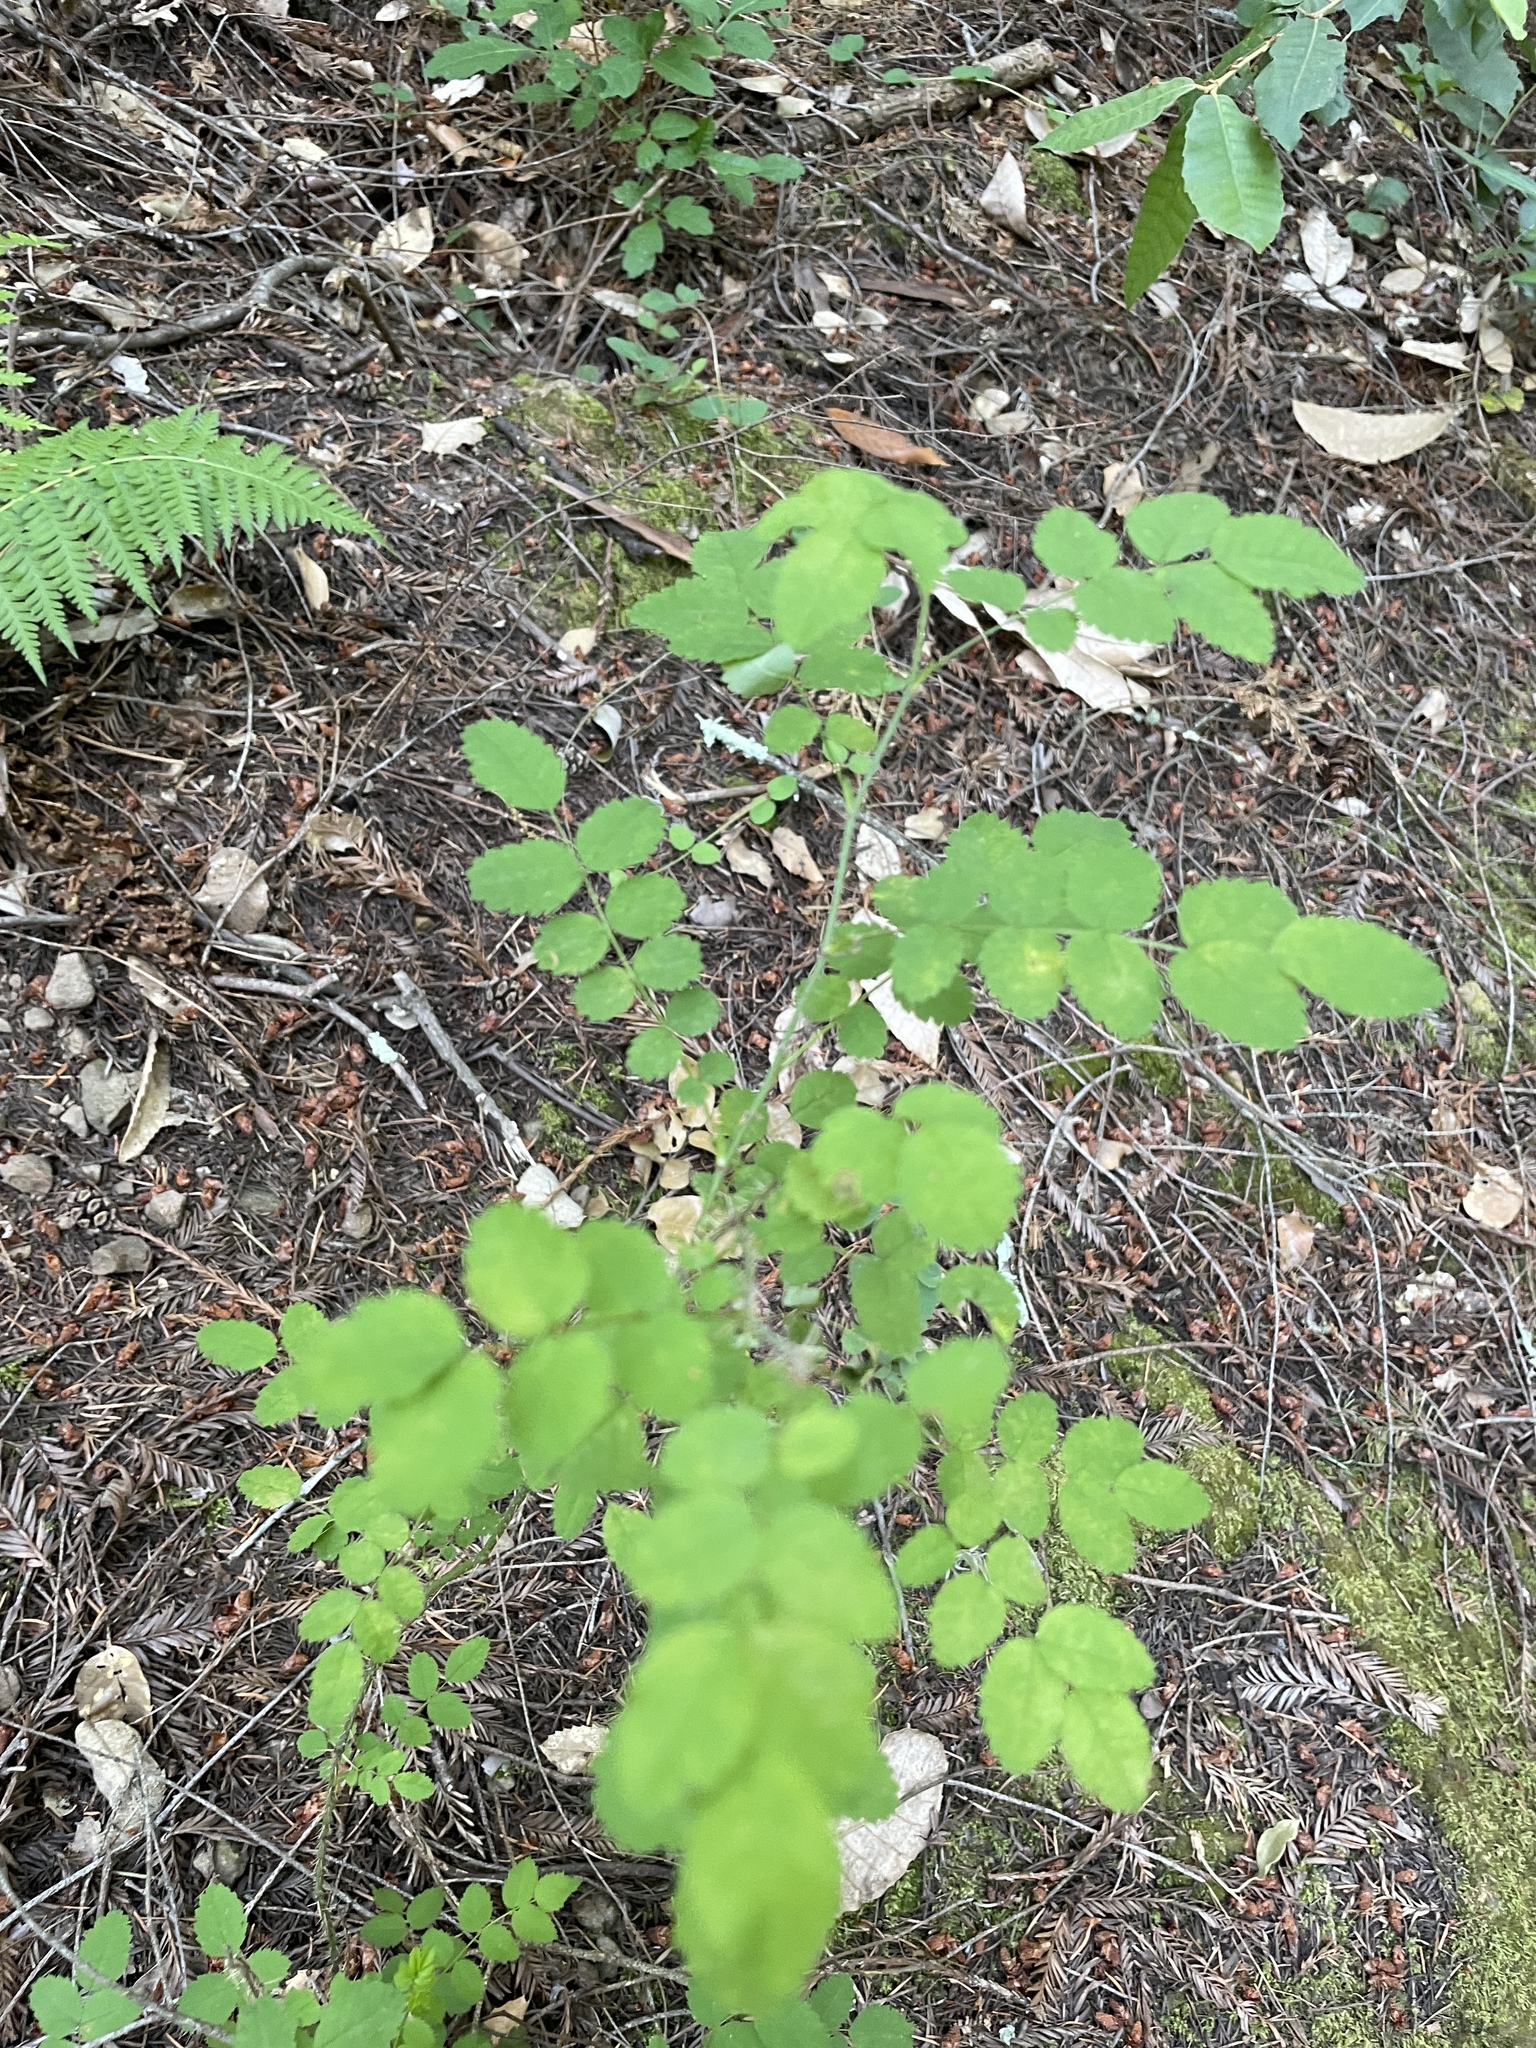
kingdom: Plantae
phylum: Tracheophyta
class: Magnoliopsida
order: Rosales
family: Rosaceae
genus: Rosa
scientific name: Rosa gymnocarpa
